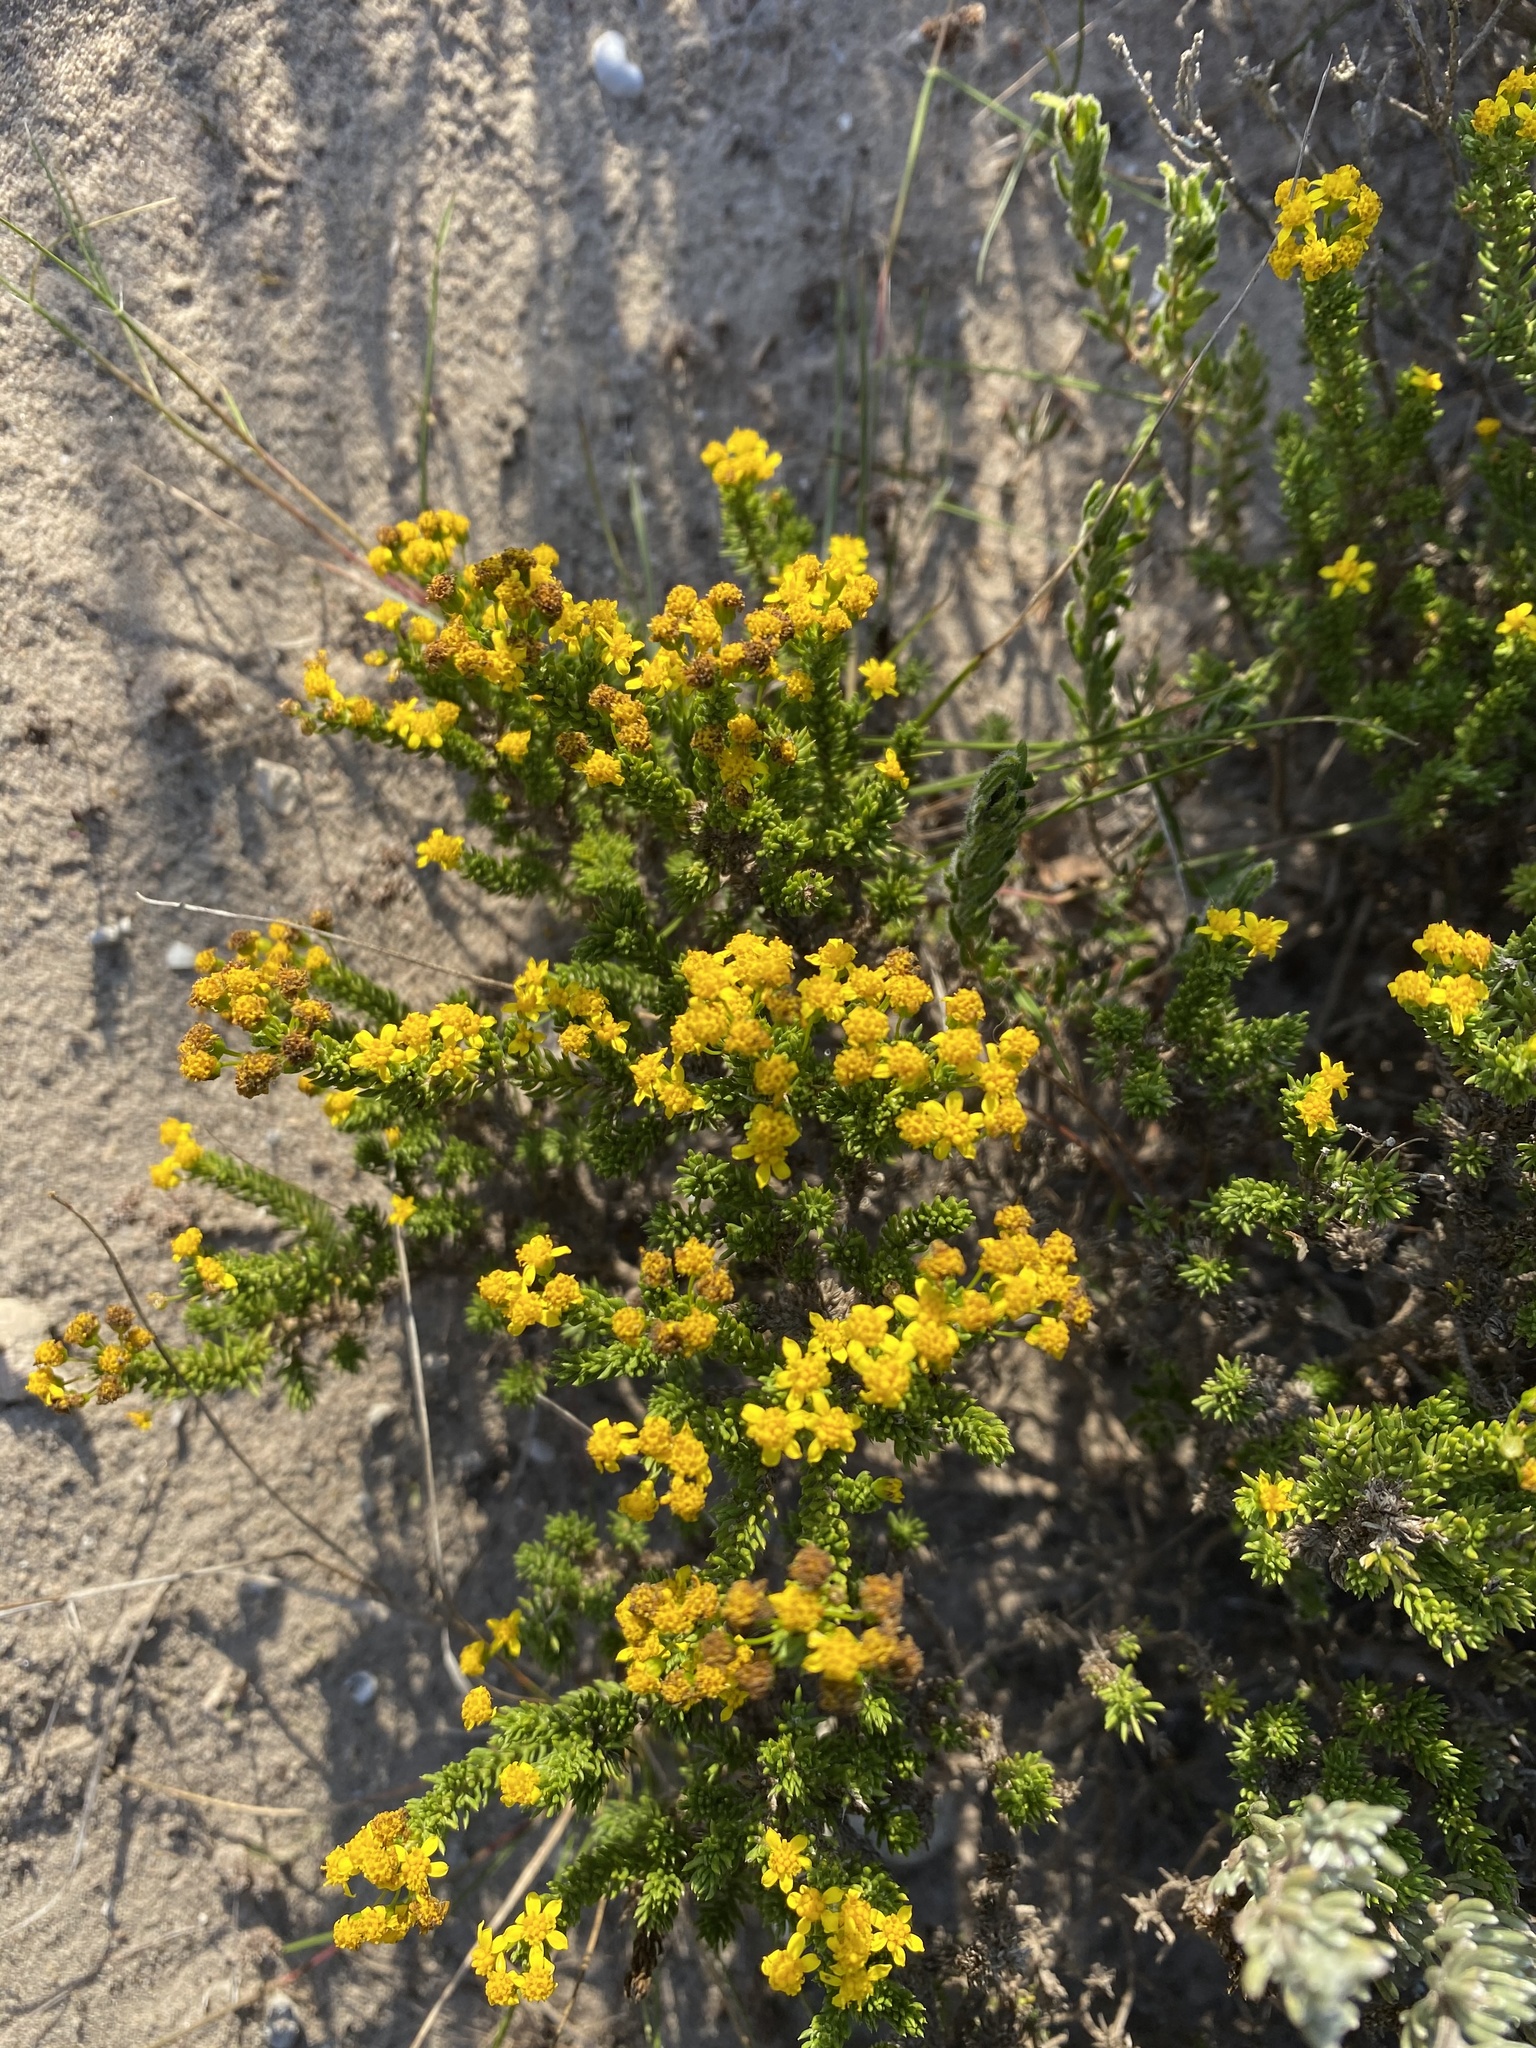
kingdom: Plantae
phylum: Tracheophyta
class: Magnoliopsida
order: Asterales
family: Asteraceae
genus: Euryops
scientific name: Euryops muirii
